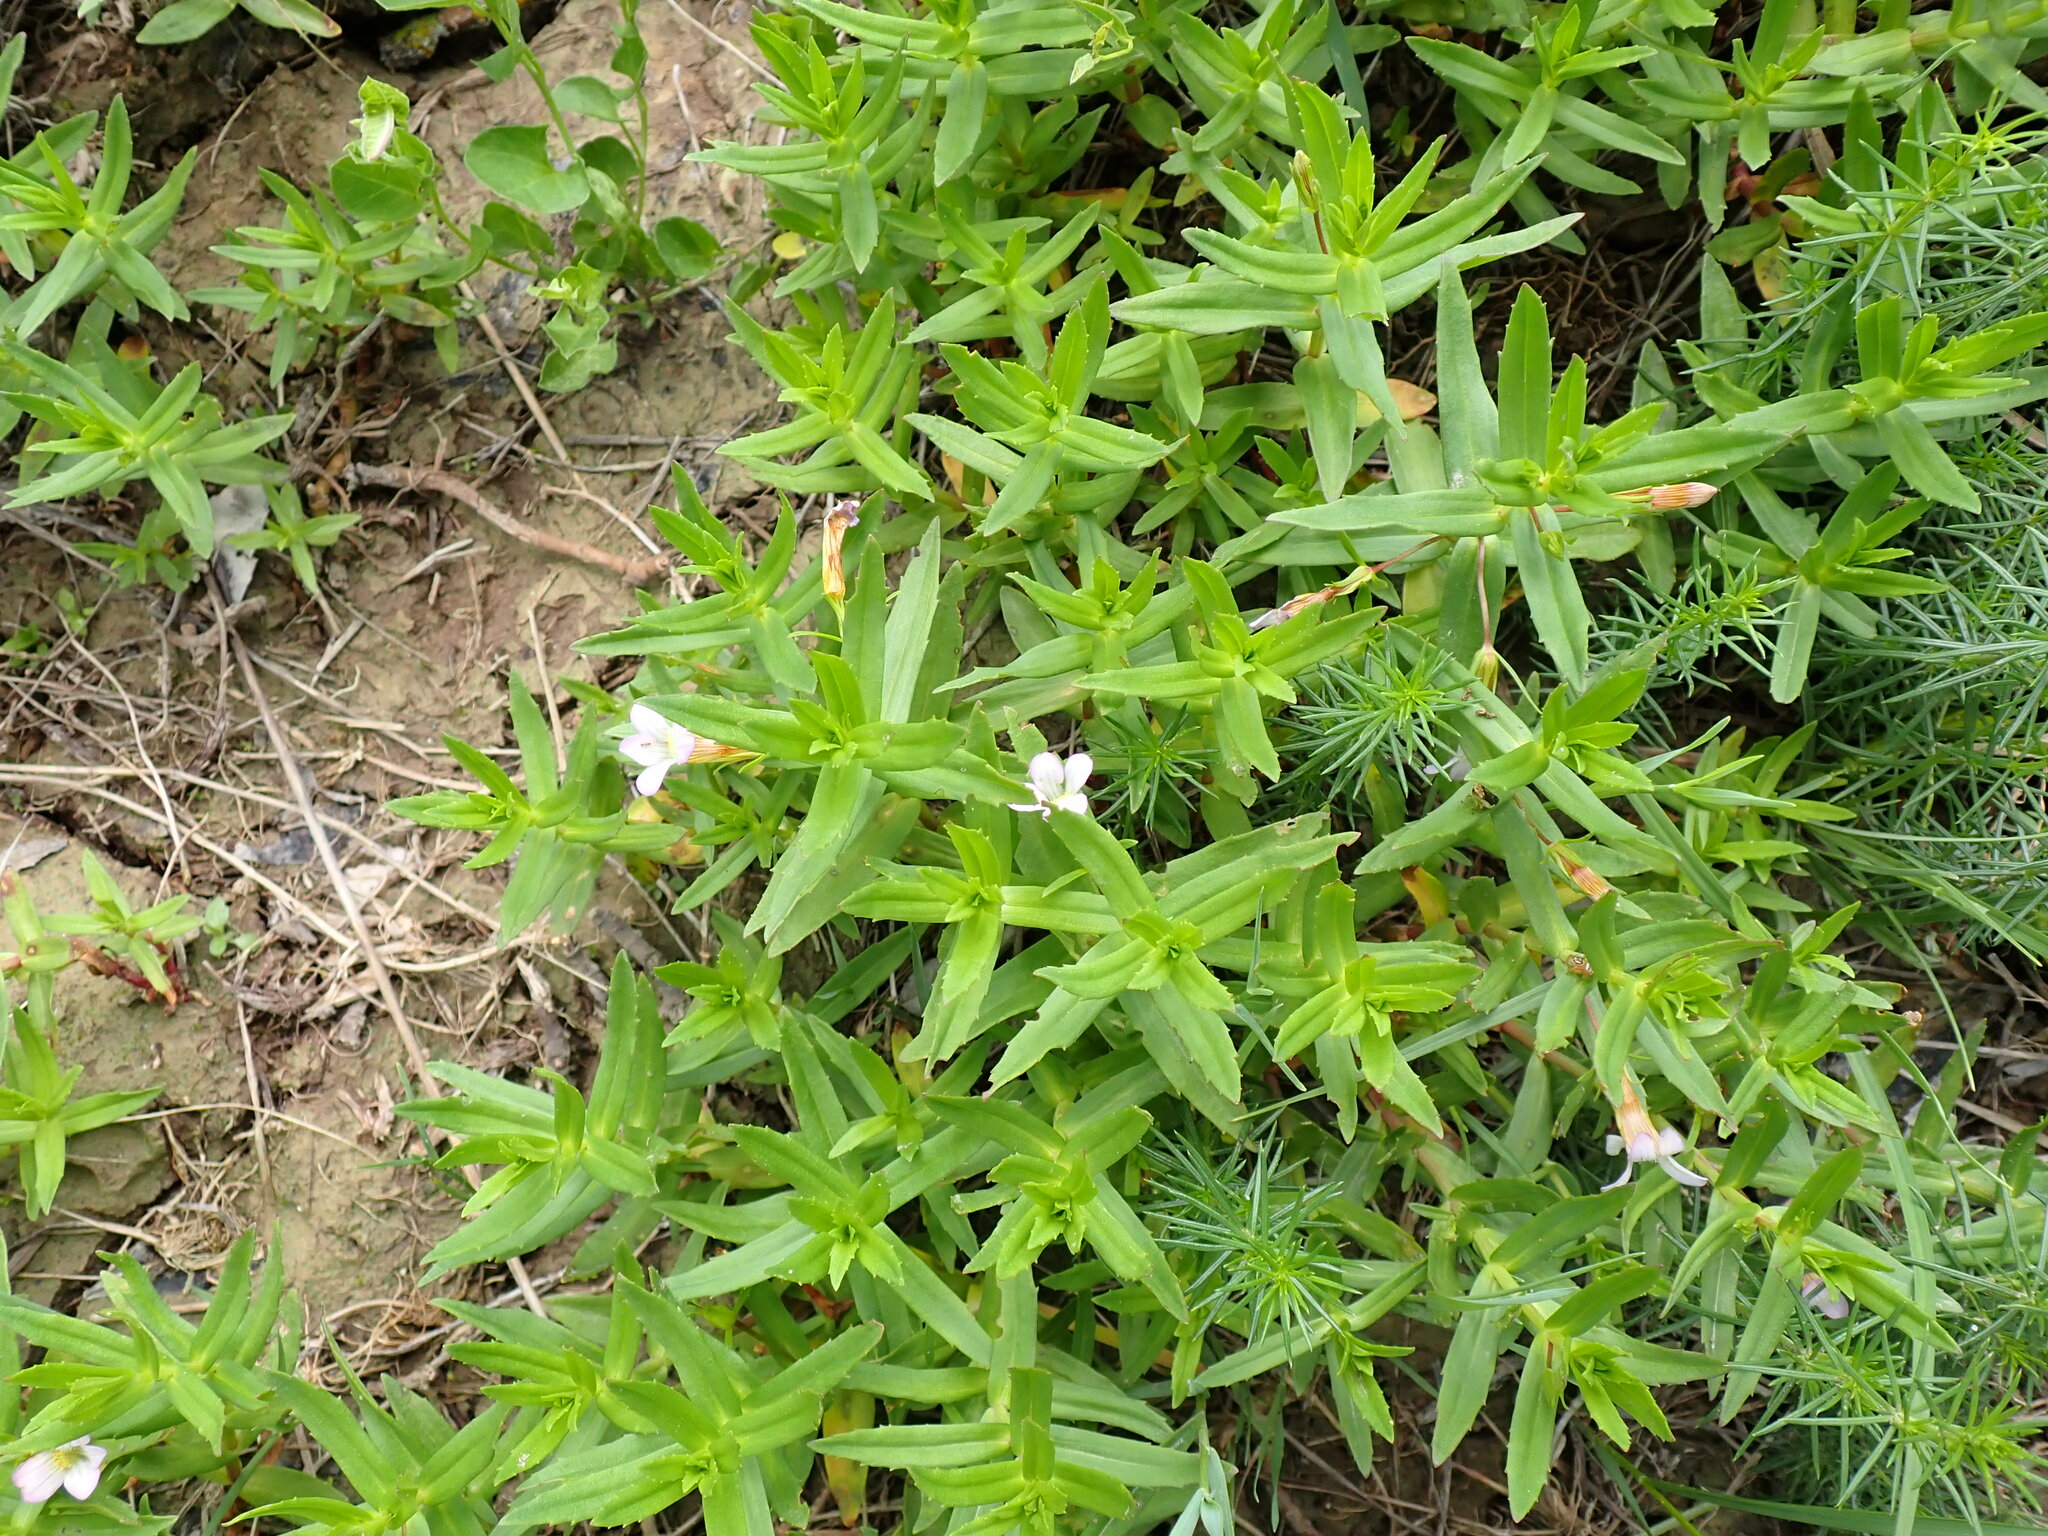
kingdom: Plantae
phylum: Tracheophyta
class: Magnoliopsida
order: Lamiales
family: Plantaginaceae
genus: Gratiola
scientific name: Gratiola officinalis
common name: Gratiola
